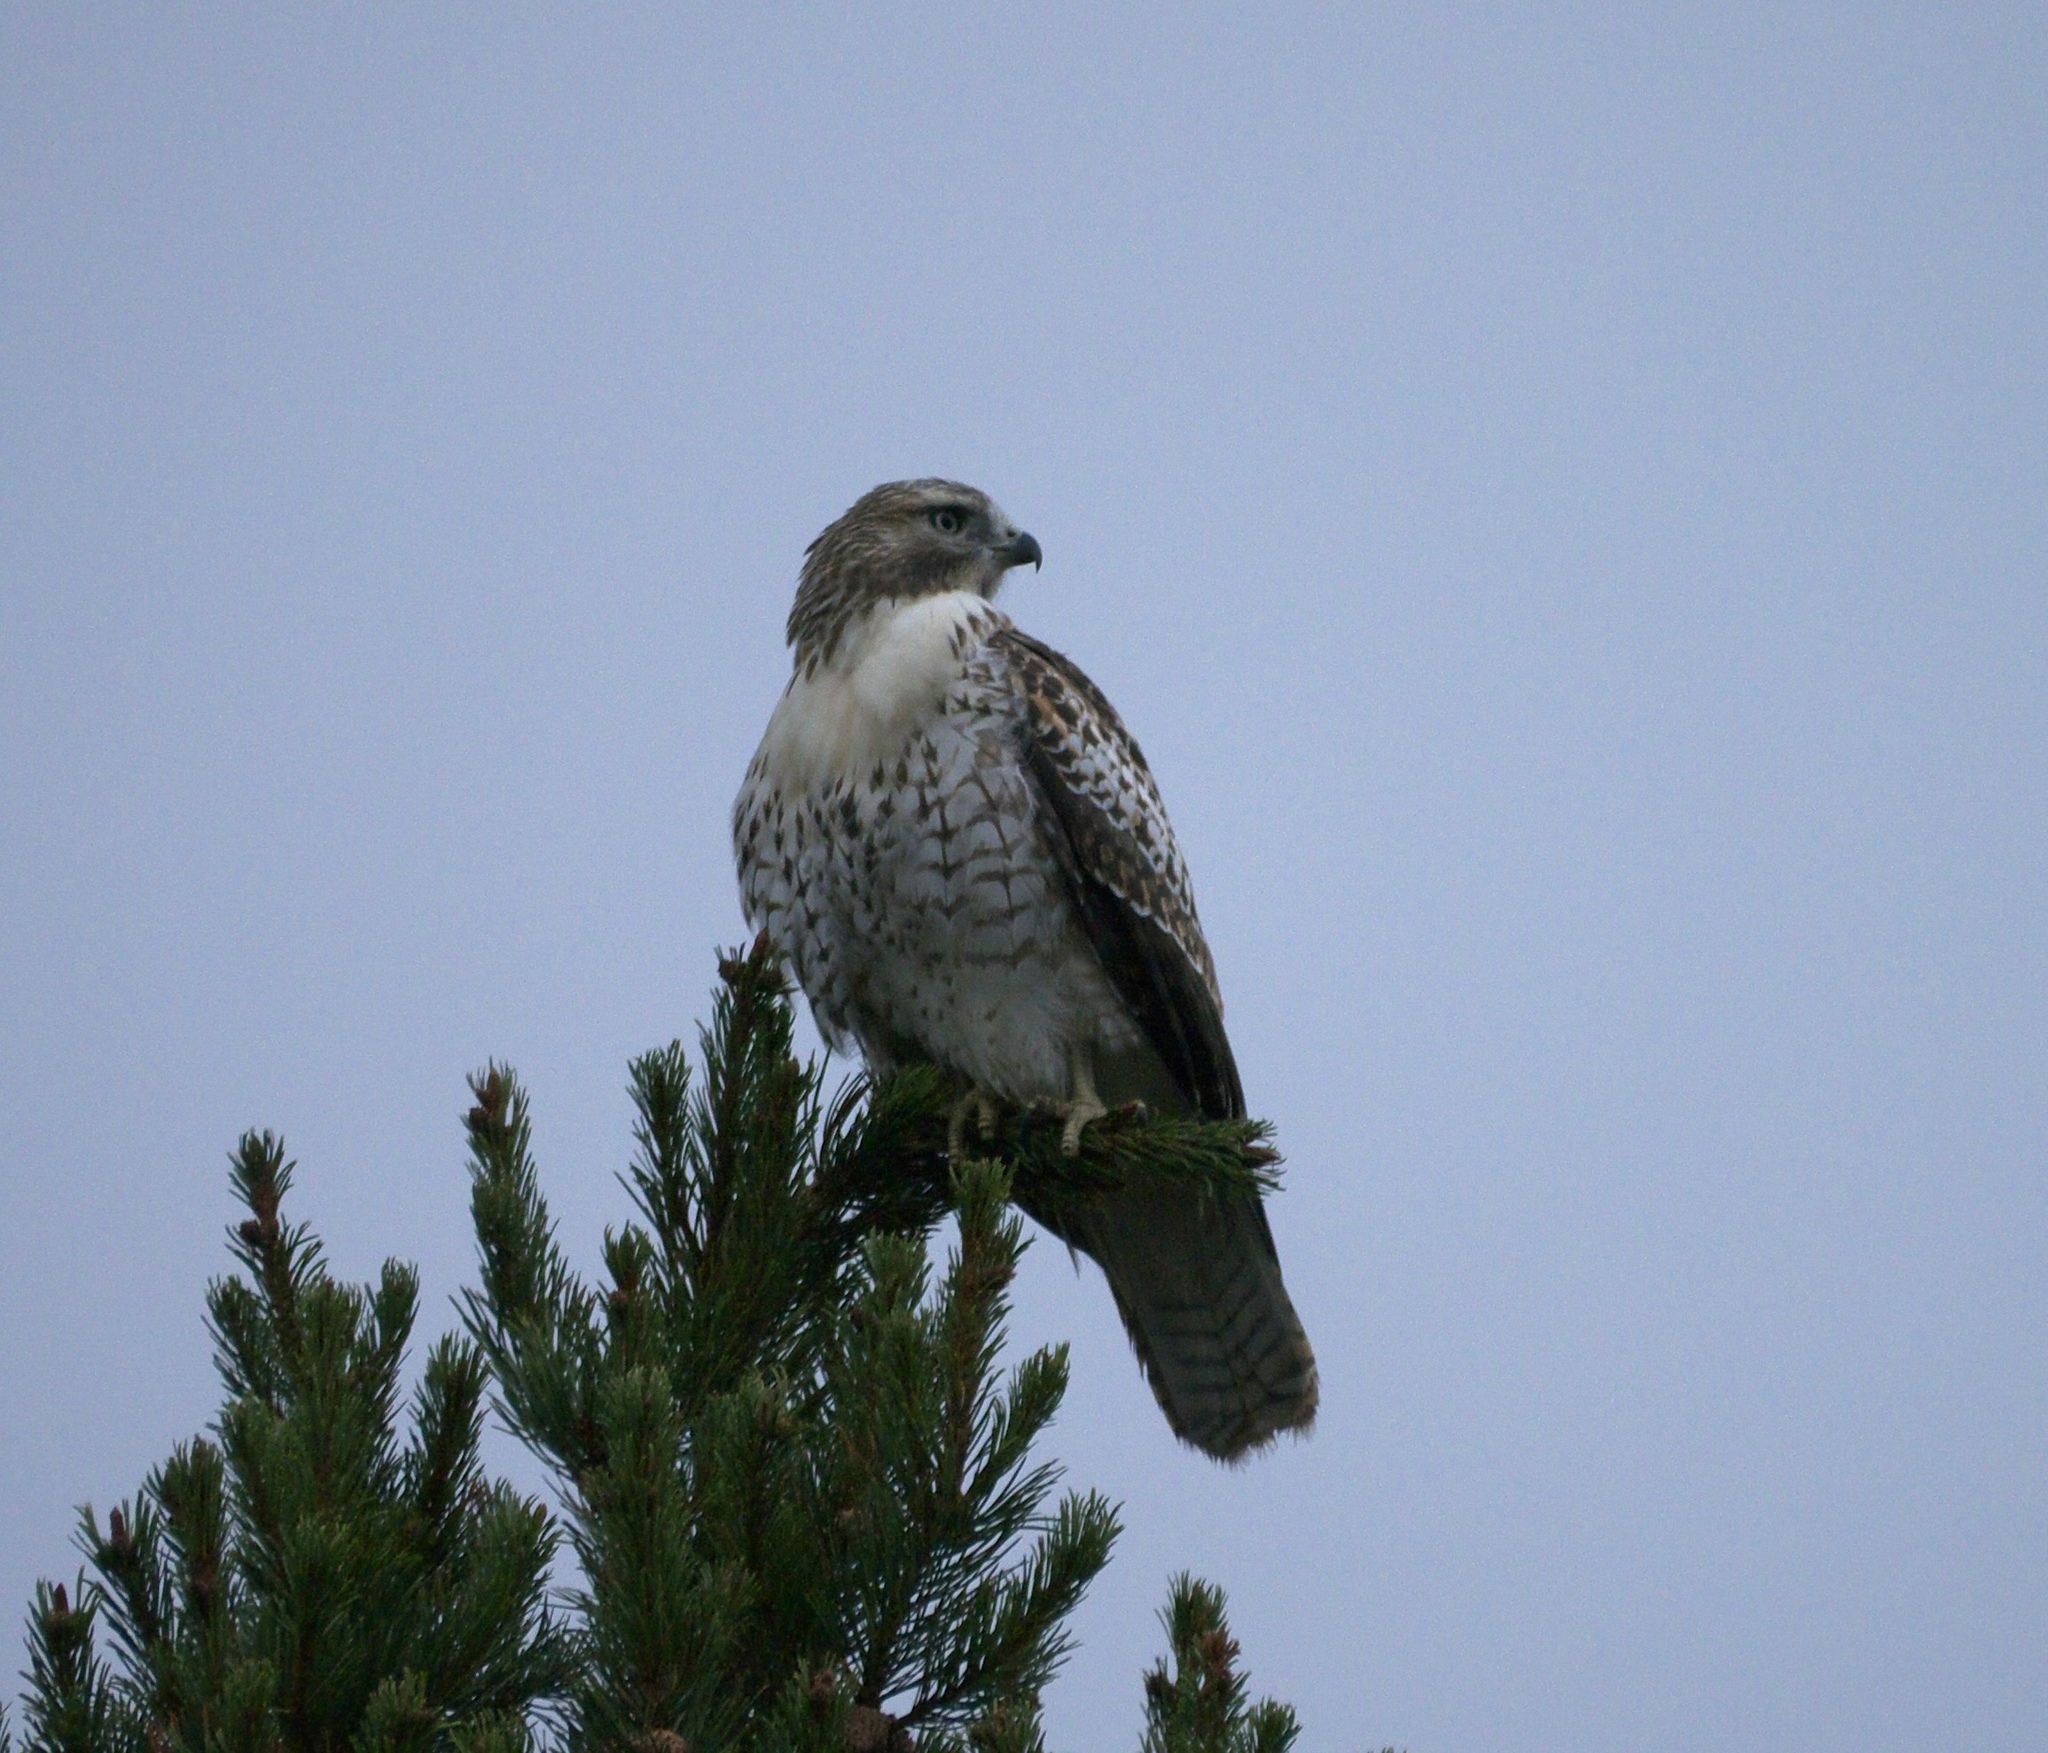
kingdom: Animalia
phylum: Chordata
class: Aves
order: Accipitriformes
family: Accipitridae
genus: Buteo
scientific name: Buteo jamaicensis
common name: Red-tailed hawk
